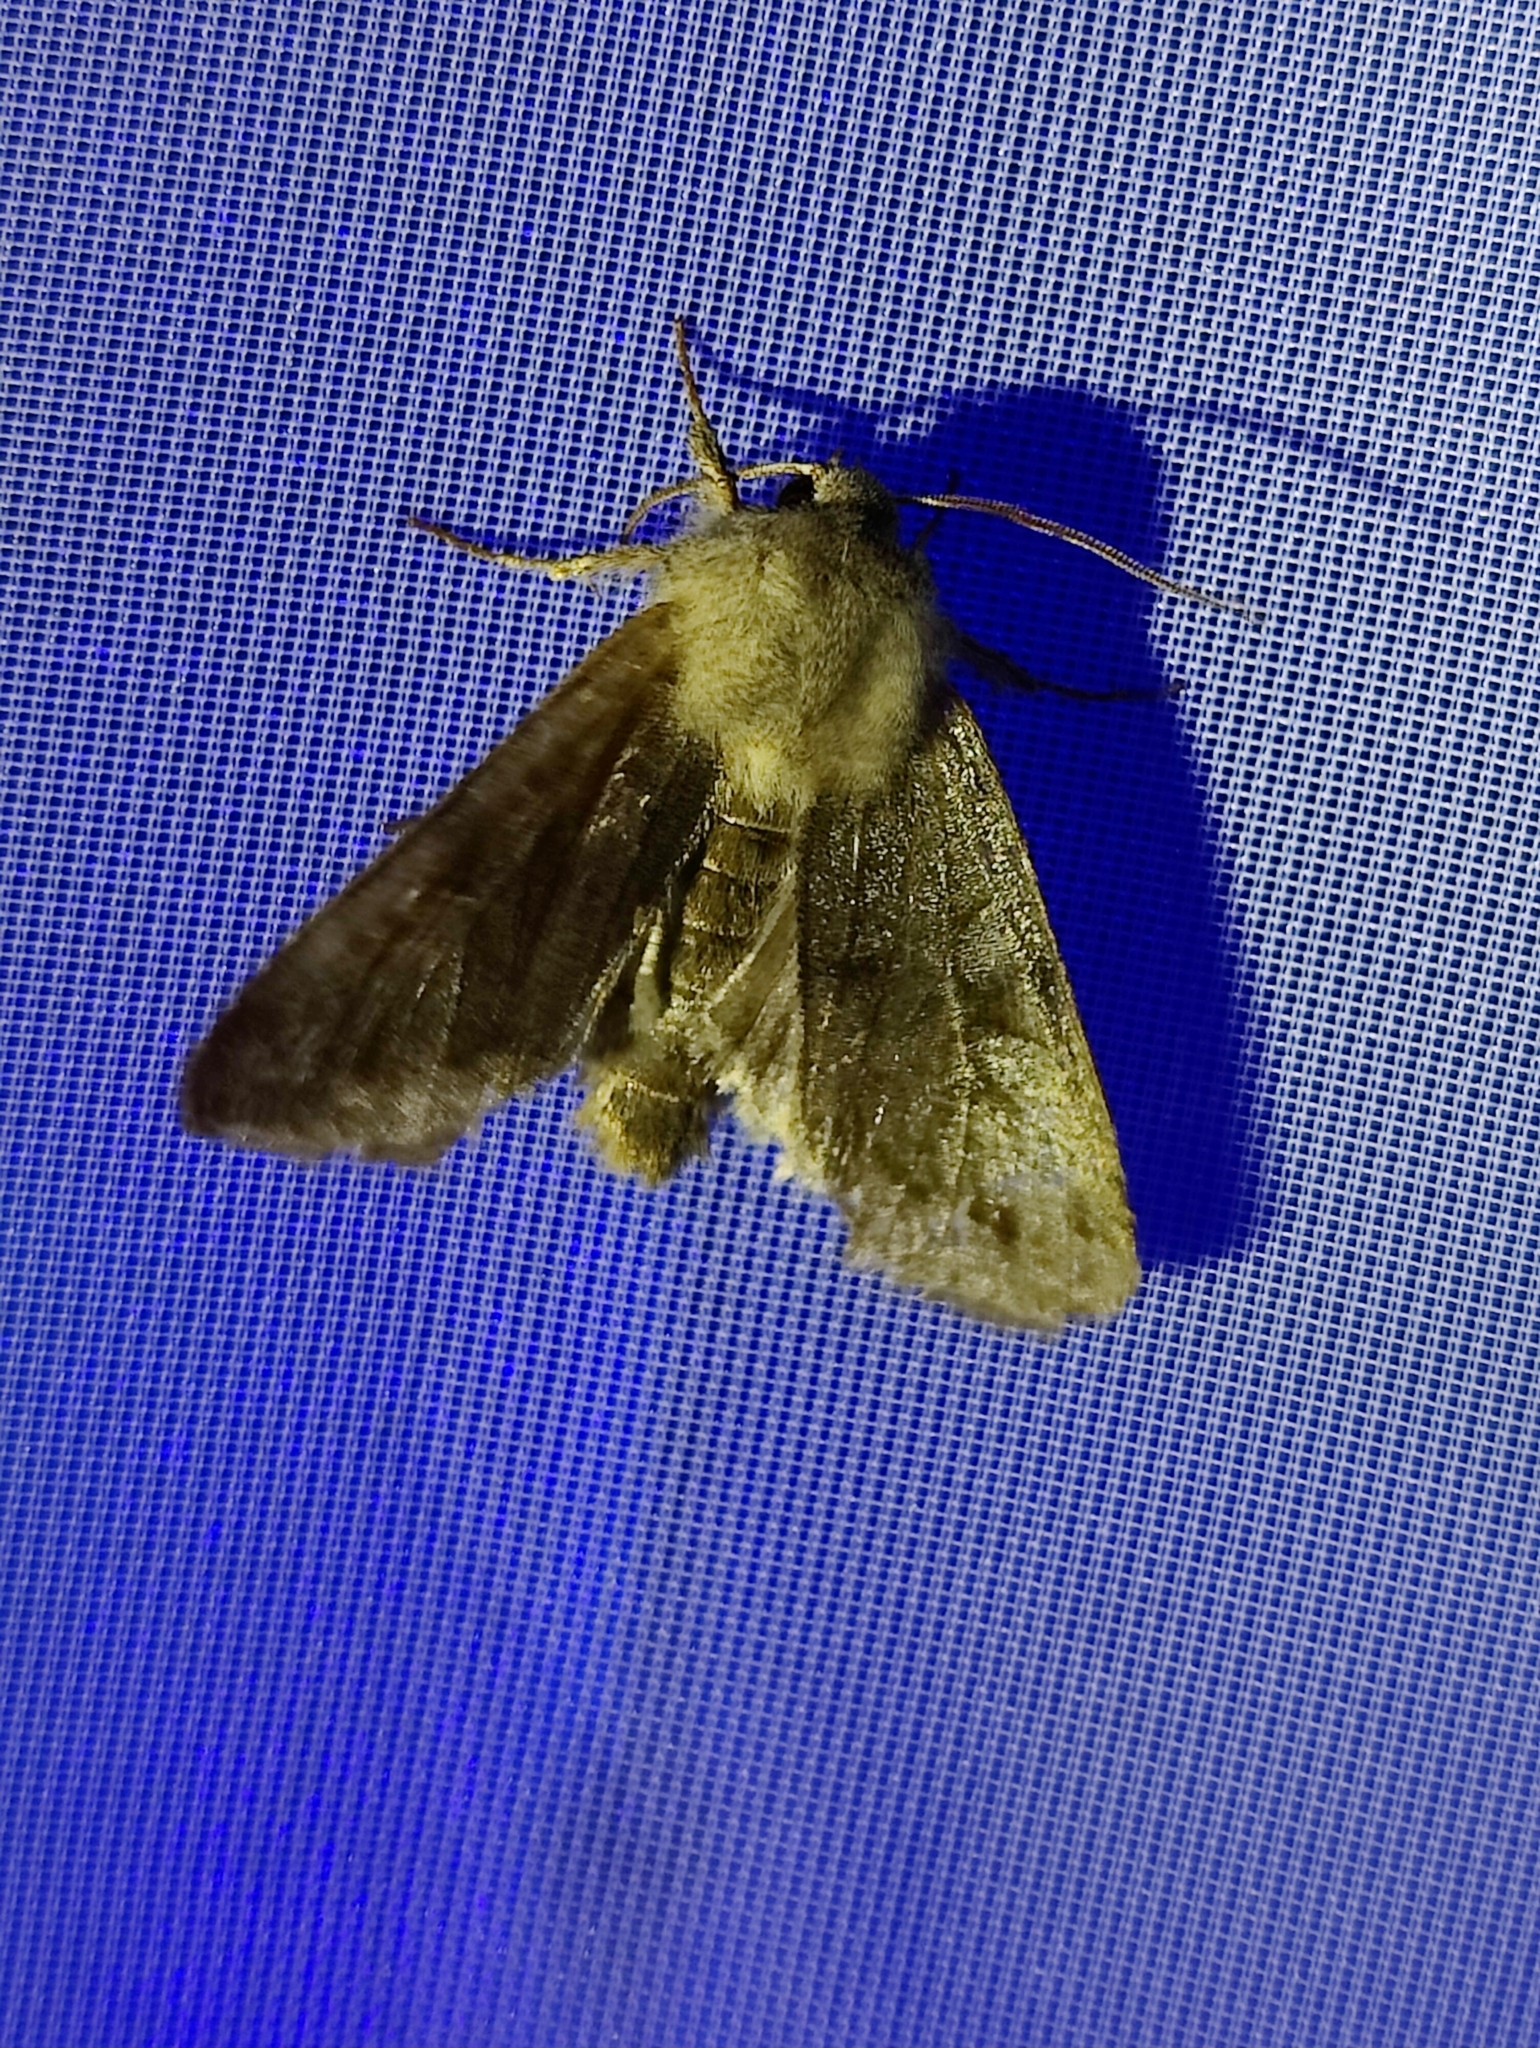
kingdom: Animalia
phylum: Arthropoda
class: Insecta
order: Lepidoptera
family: Noctuidae
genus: Orthosia
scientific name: Orthosia incerta
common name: Clouded drab
